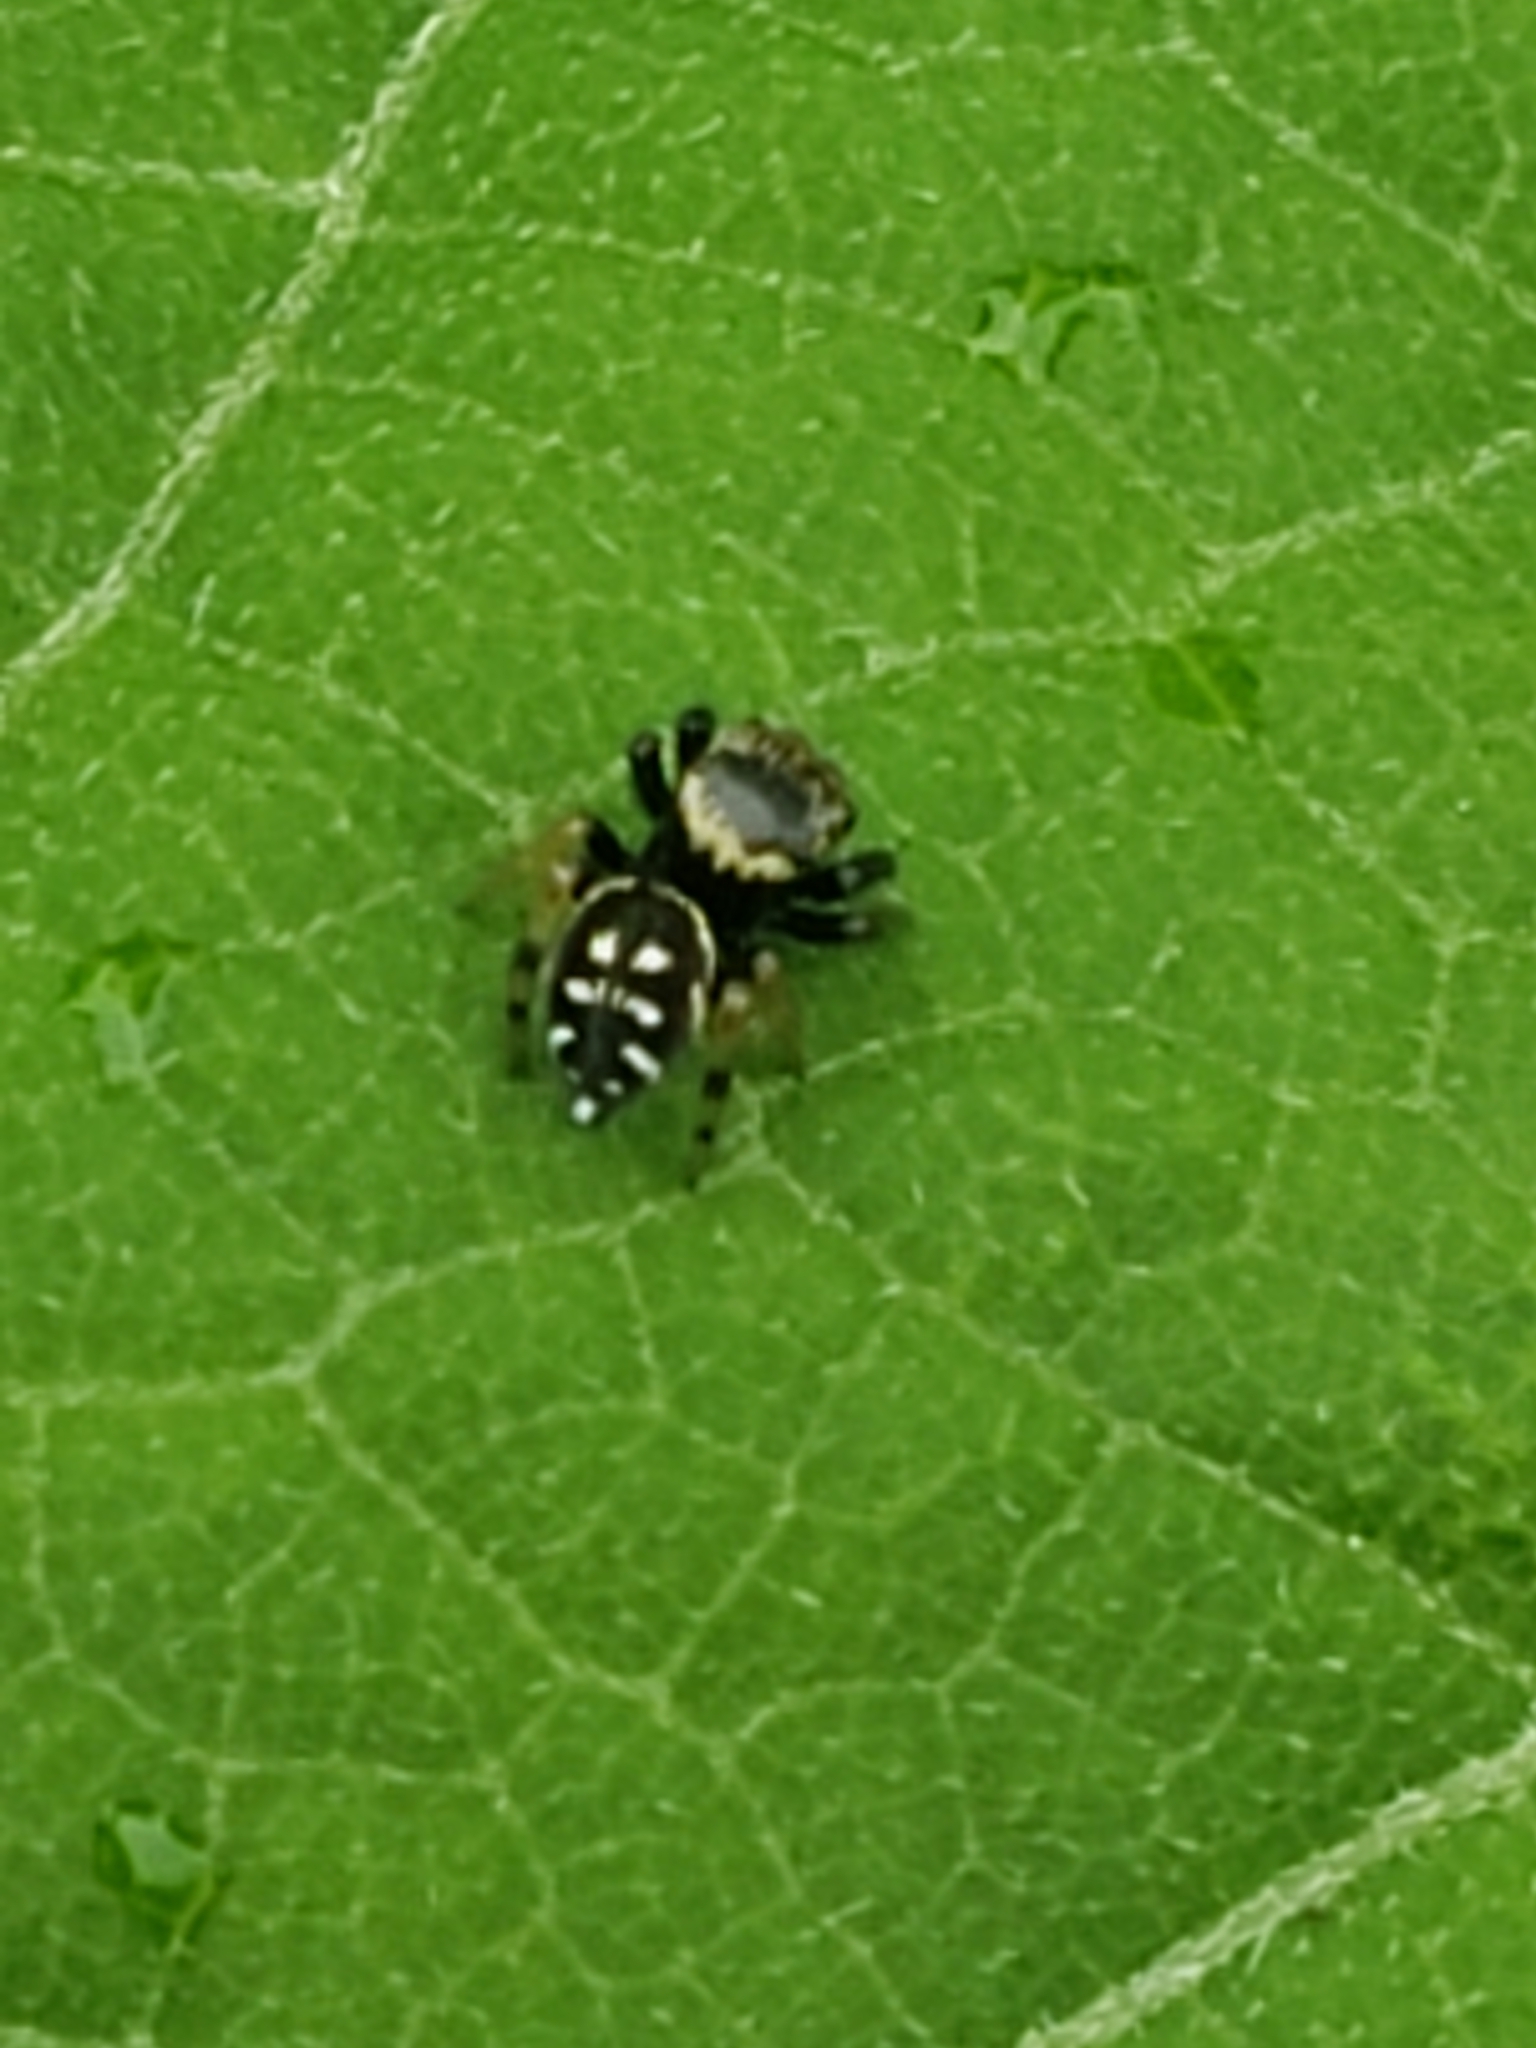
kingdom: Animalia
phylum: Arthropoda
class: Arachnida
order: Araneae
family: Salticidae
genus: Paraphidippus
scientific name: Paraphidippus aurantius
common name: Jumping spiders
